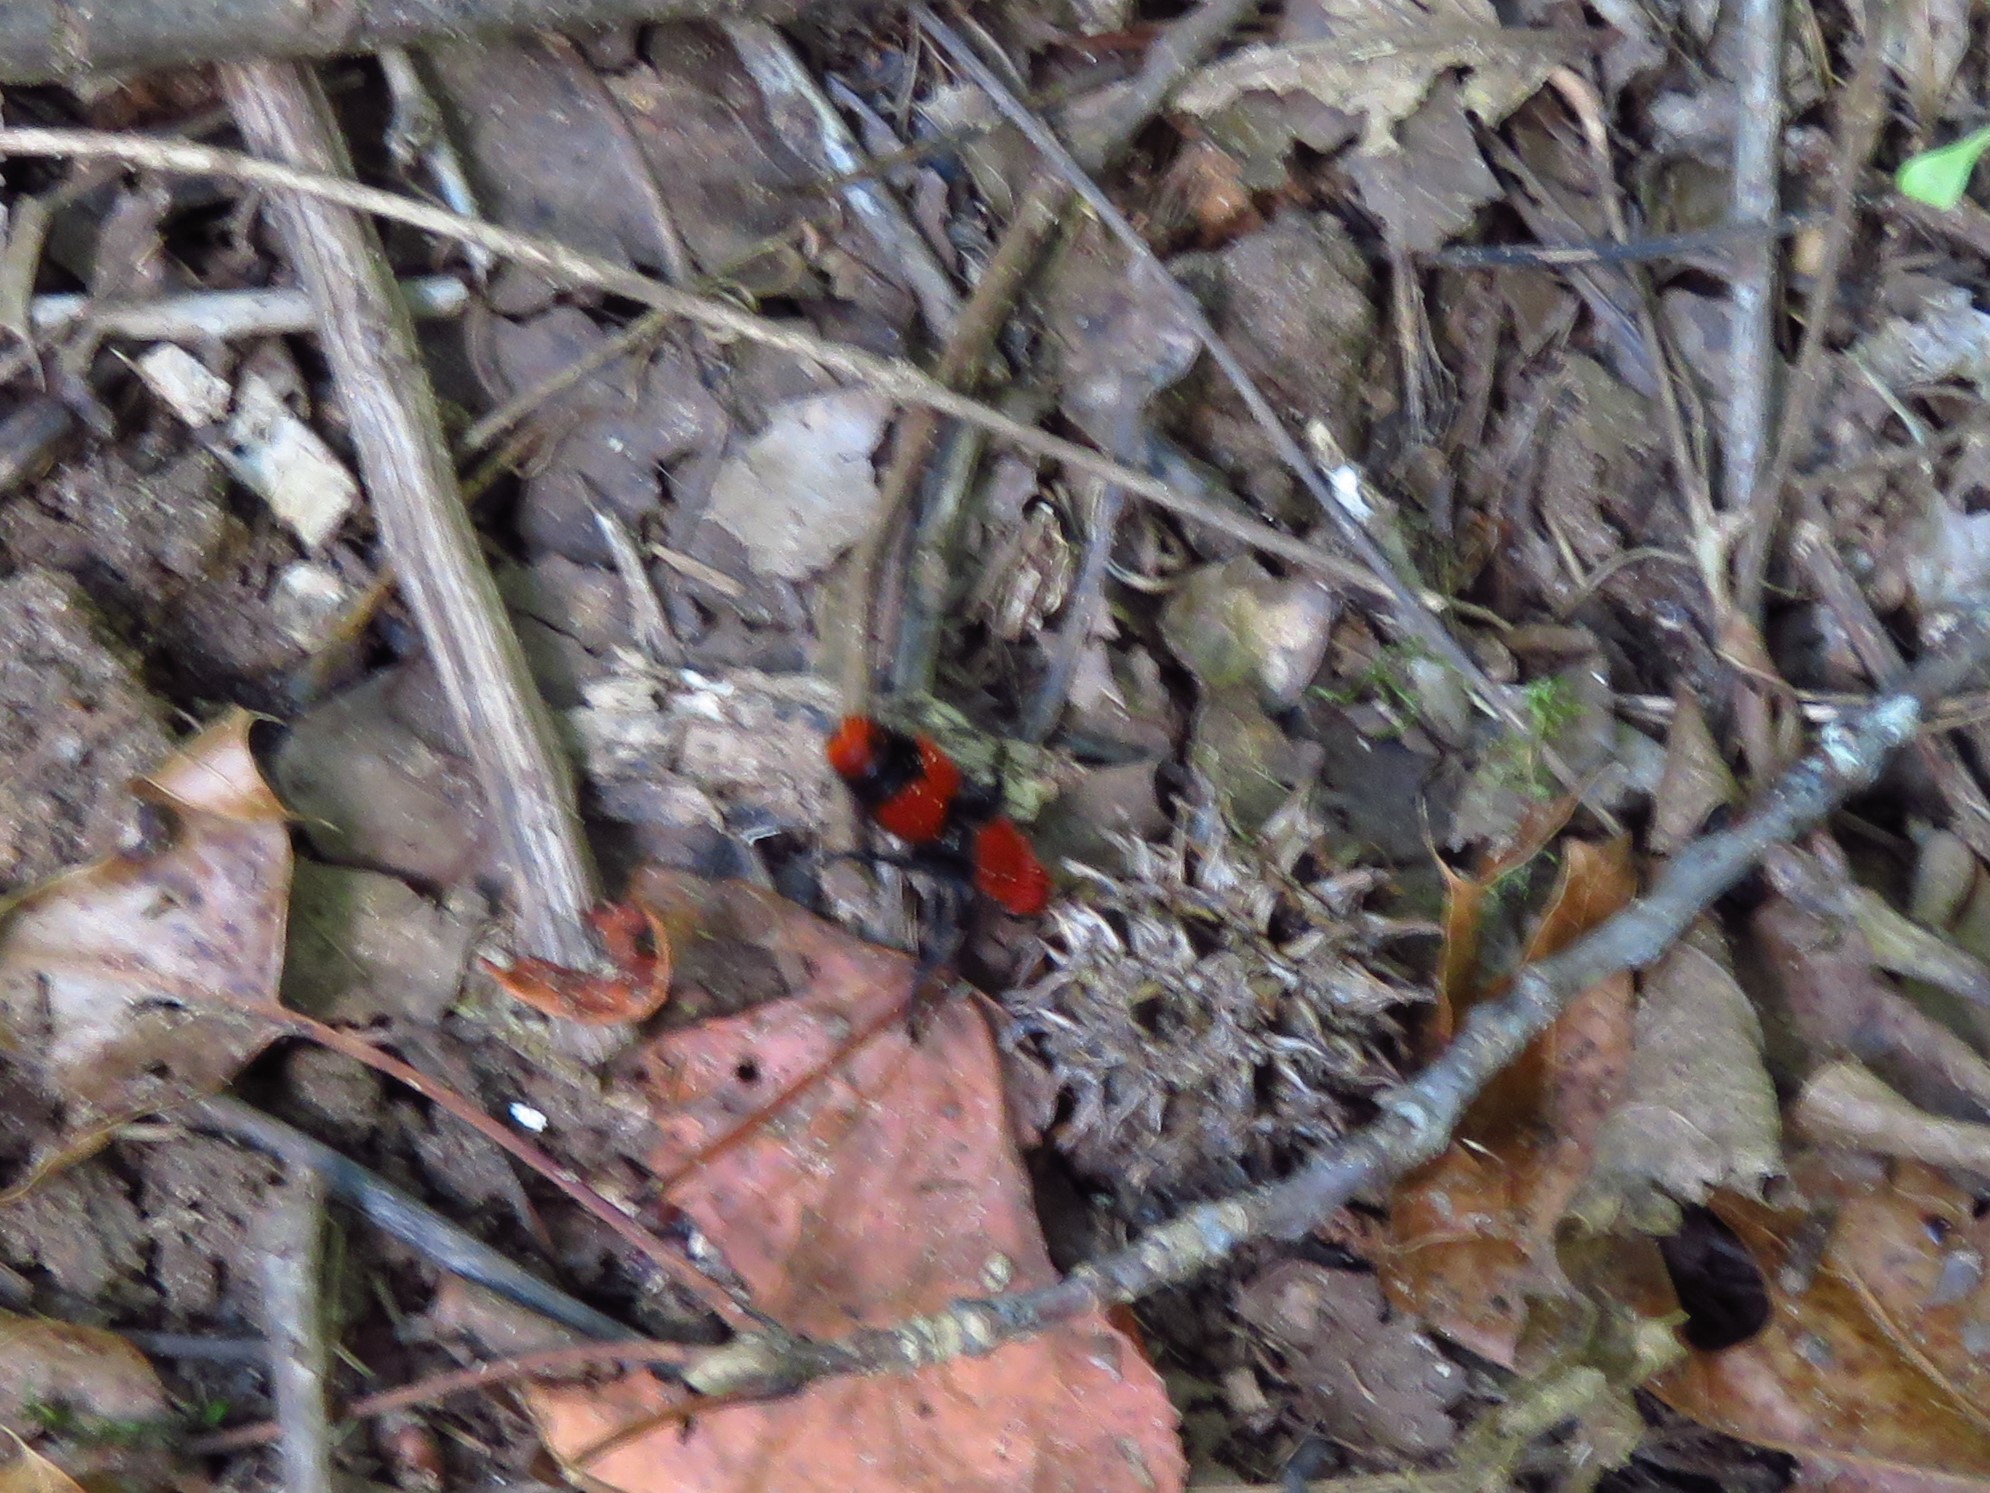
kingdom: Animalia
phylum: Arthropoda
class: Insecta
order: Hymenoptera
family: Mutillidae
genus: Dasymutilla
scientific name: Dasymutilla occidentalis
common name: Common eastern velvet ant
